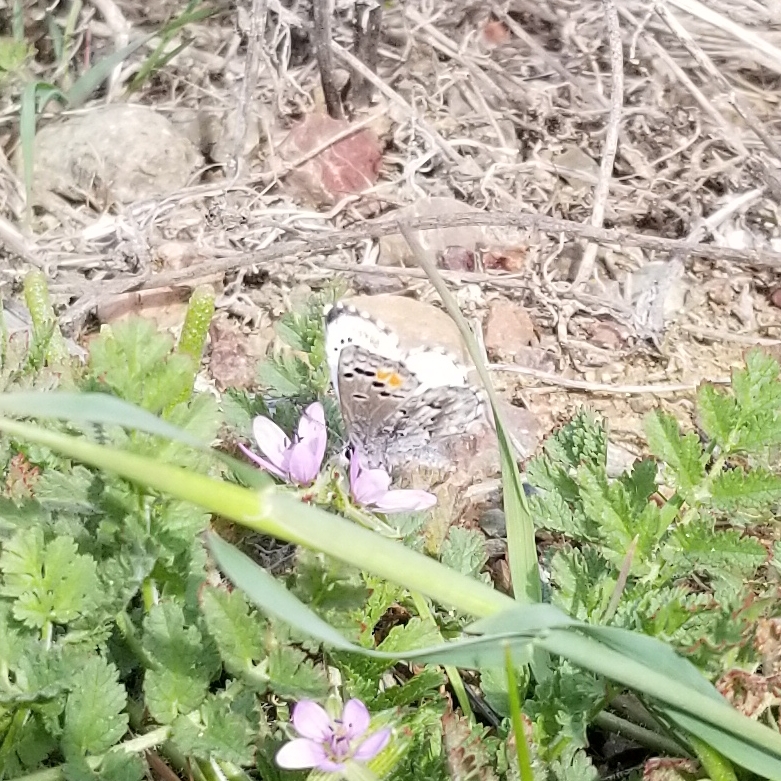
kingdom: Animalia
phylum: Arthropoda
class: Insecta
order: Lepidoptera
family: Lycaenidae
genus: Philotes
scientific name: Philotes sonorensis
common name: Sonoran blue
